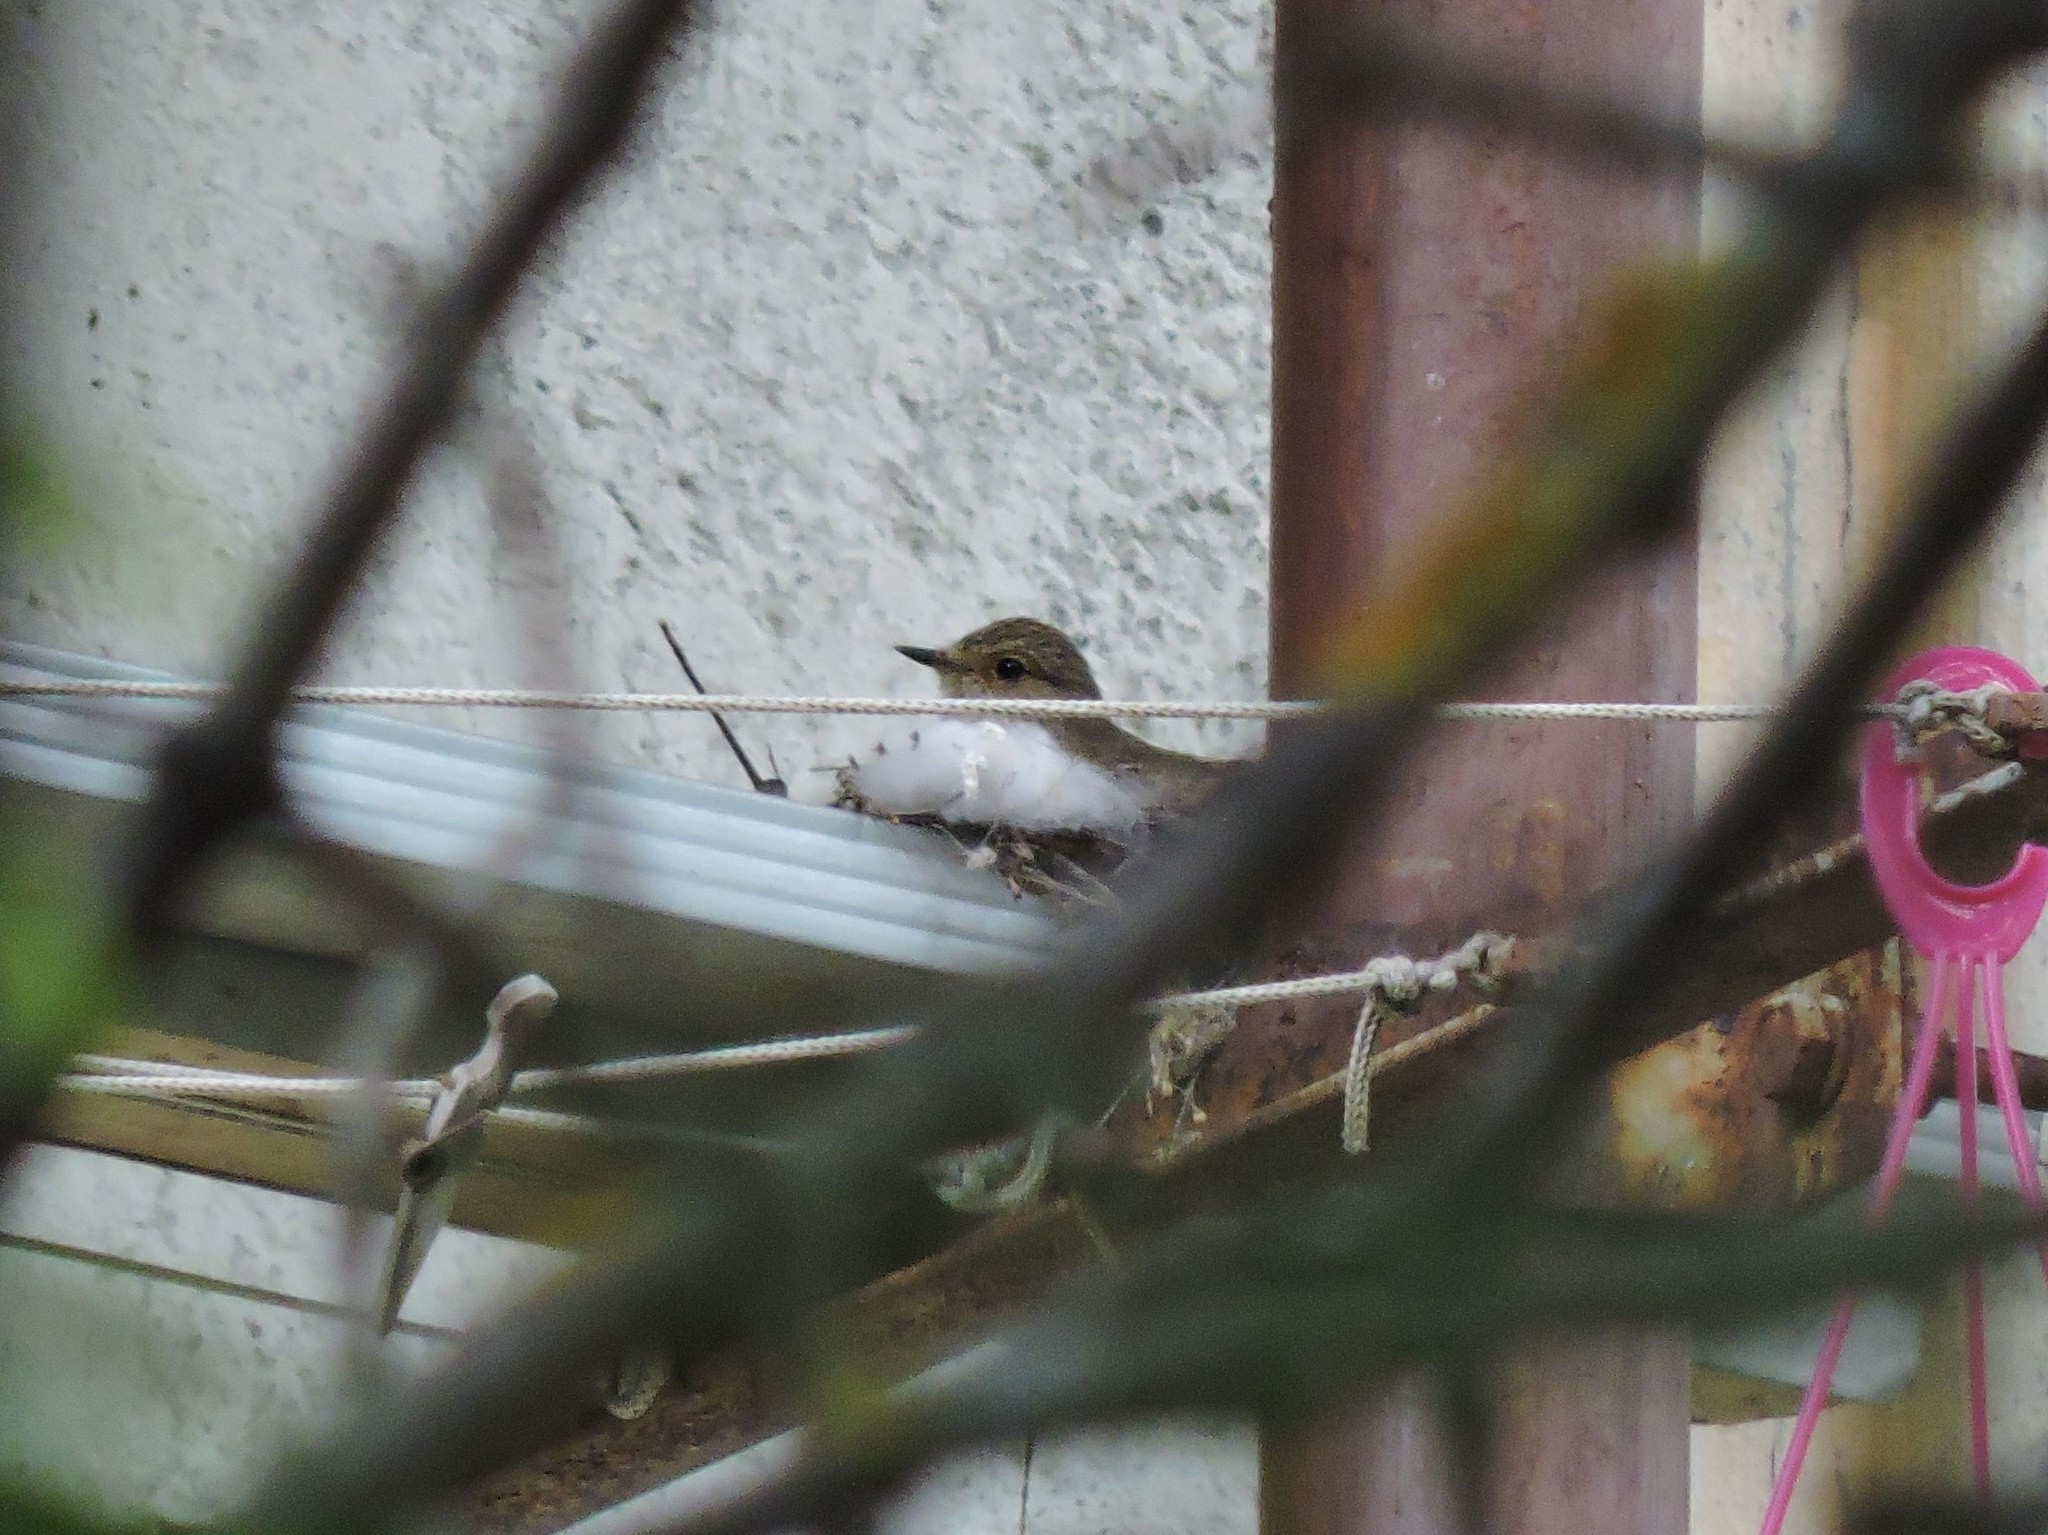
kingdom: Animalia
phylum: Chordata
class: Aves
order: Passeriformes
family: Muscicapidae
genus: Muscicapa
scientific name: Muscicapa striata
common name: Spotted flycatcher
